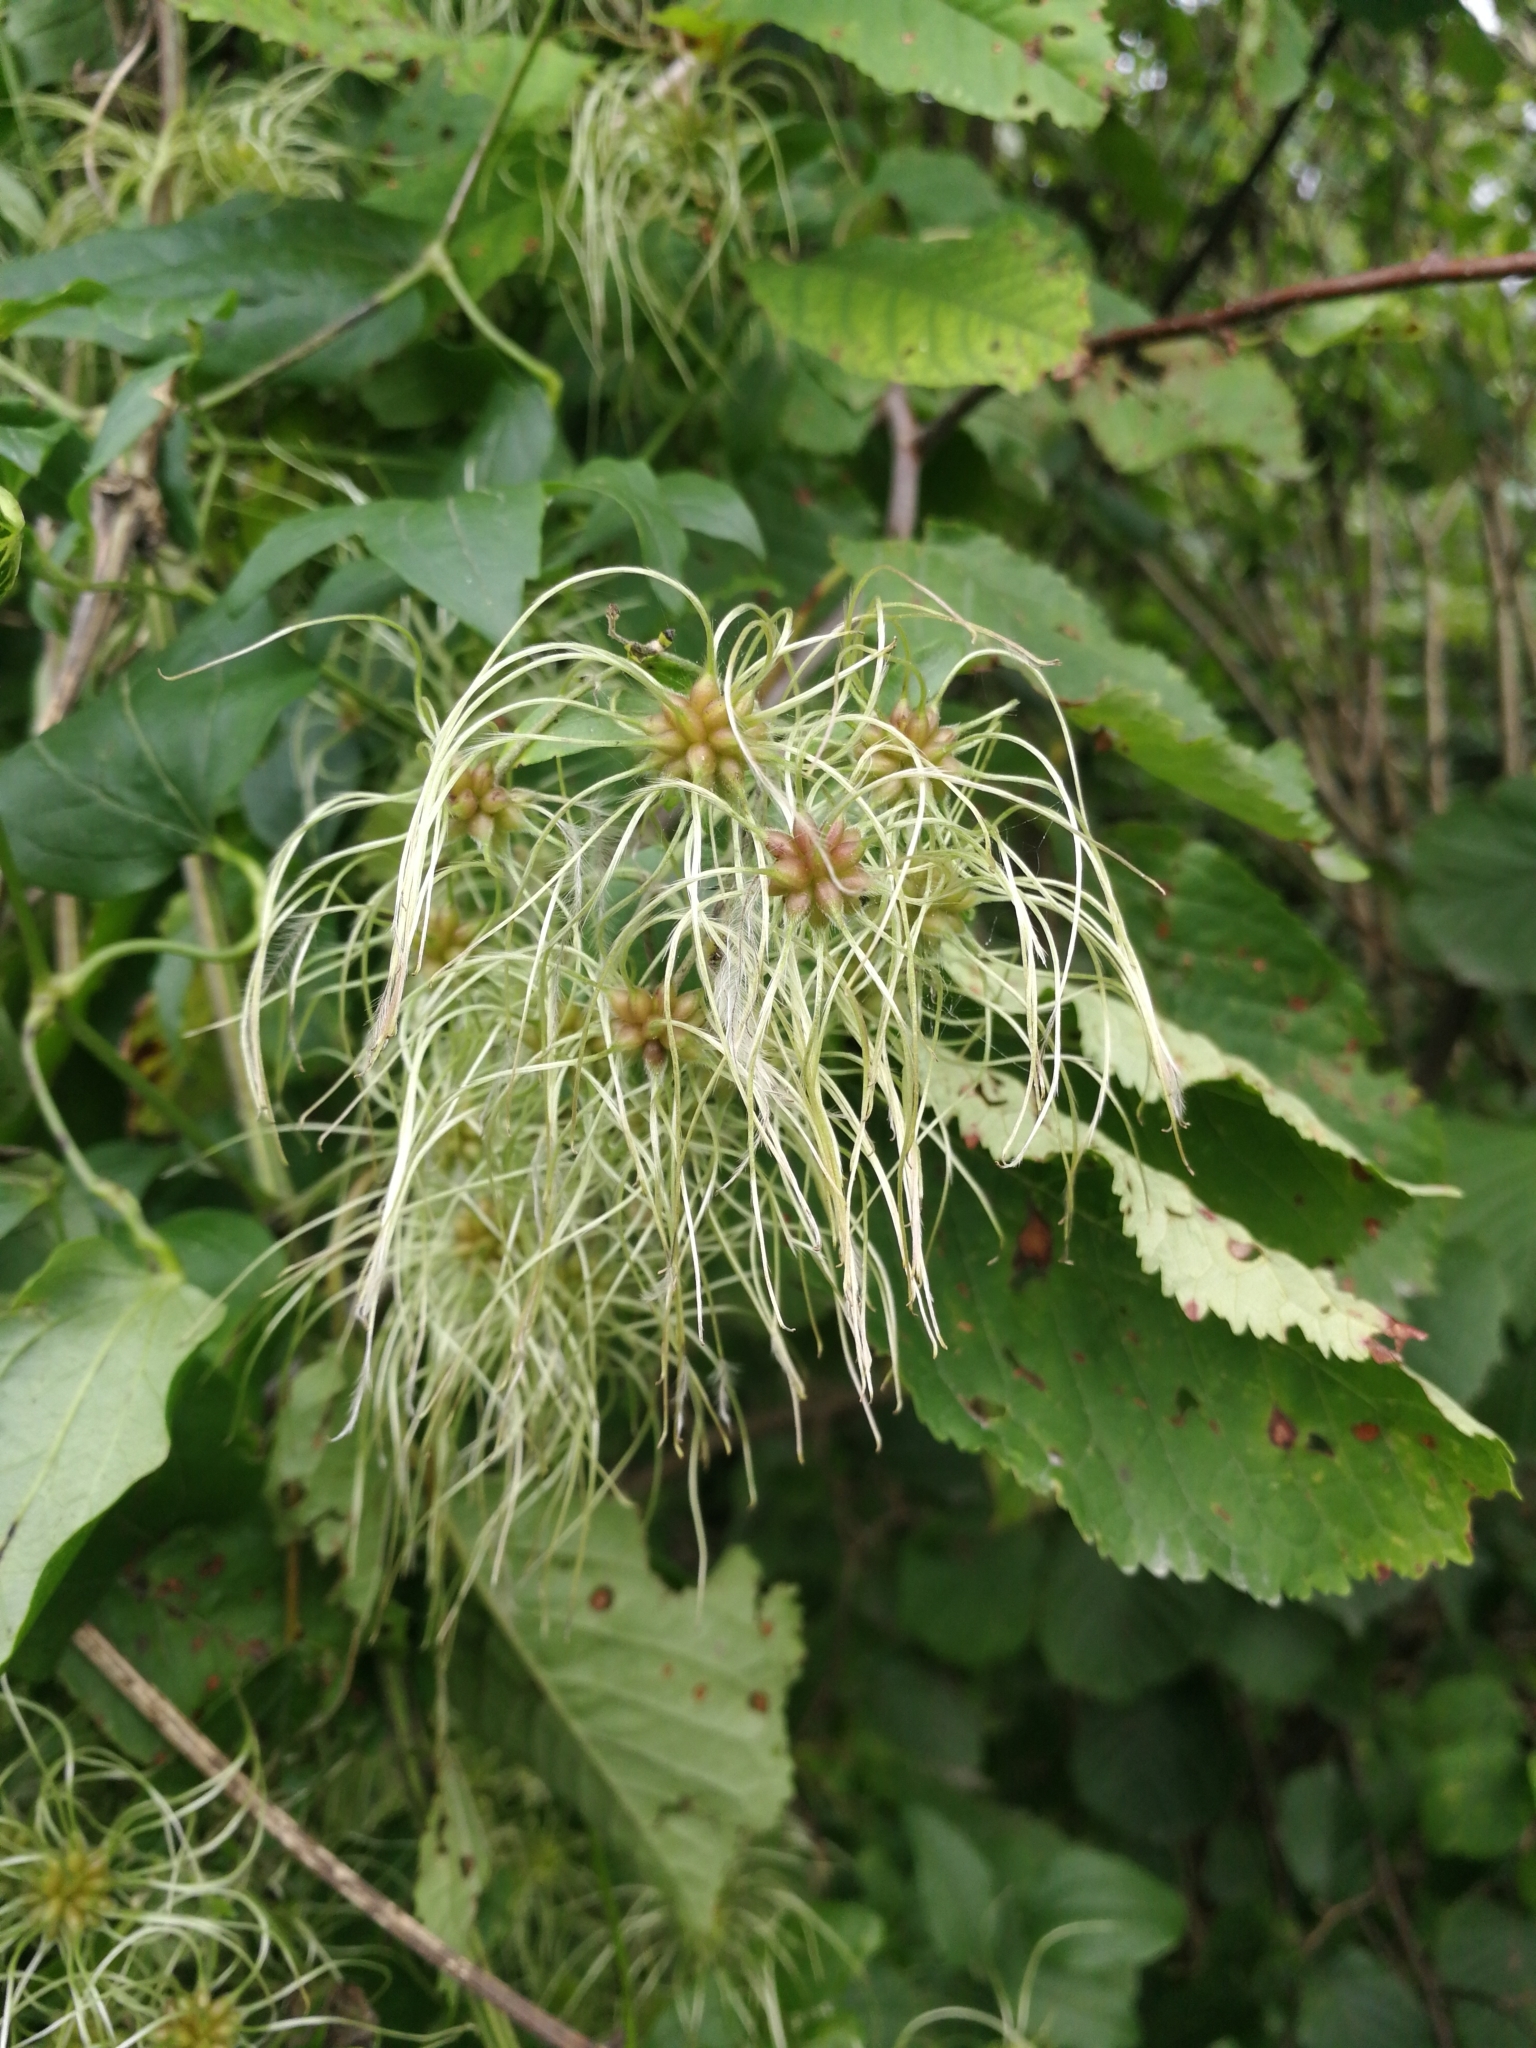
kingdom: Plantae
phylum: Tracheophyta
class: Magnoliopsida
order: Ranunculales
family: Ranunculaceae
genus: Clematis
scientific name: Clematis vitalba
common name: Evergreen clematis
